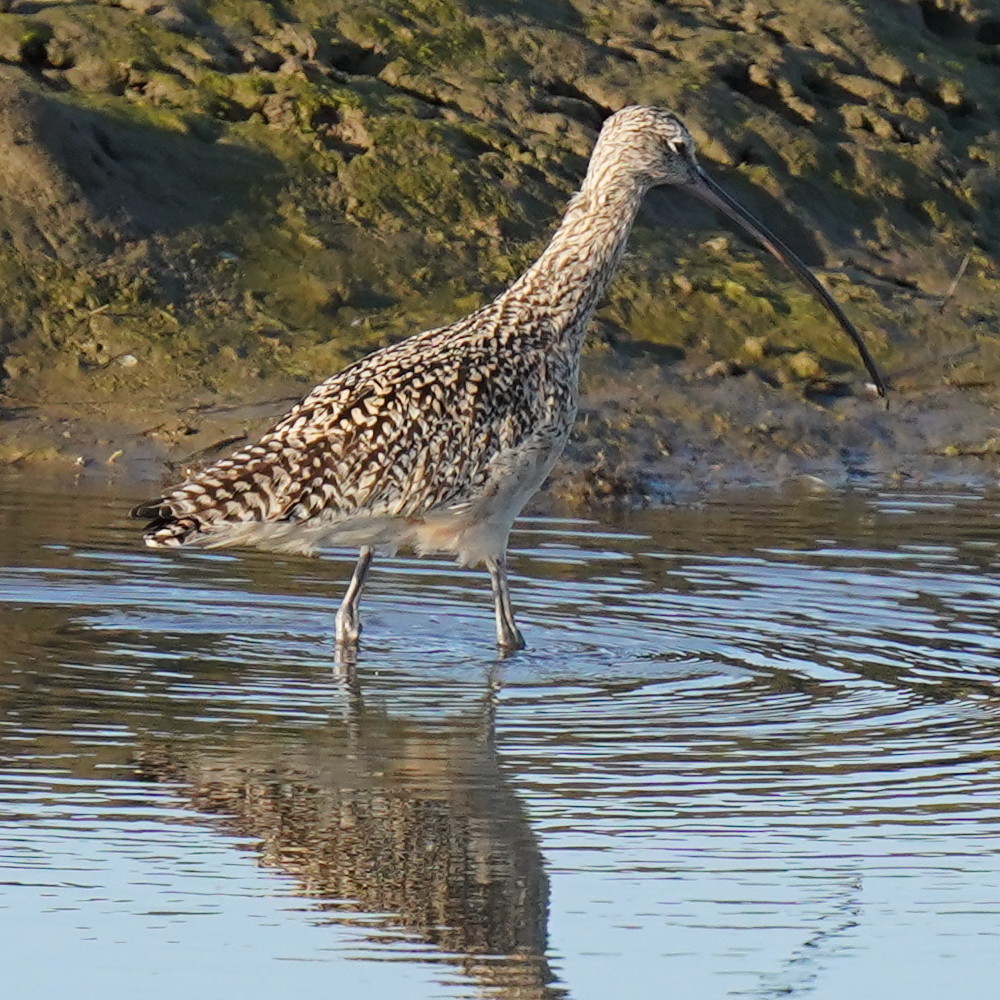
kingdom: Animalia
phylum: Chordata
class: Aves
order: Charadriiformes
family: Scolopacidae
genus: Numenius
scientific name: Numenius americanus
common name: Long-billed curlew
